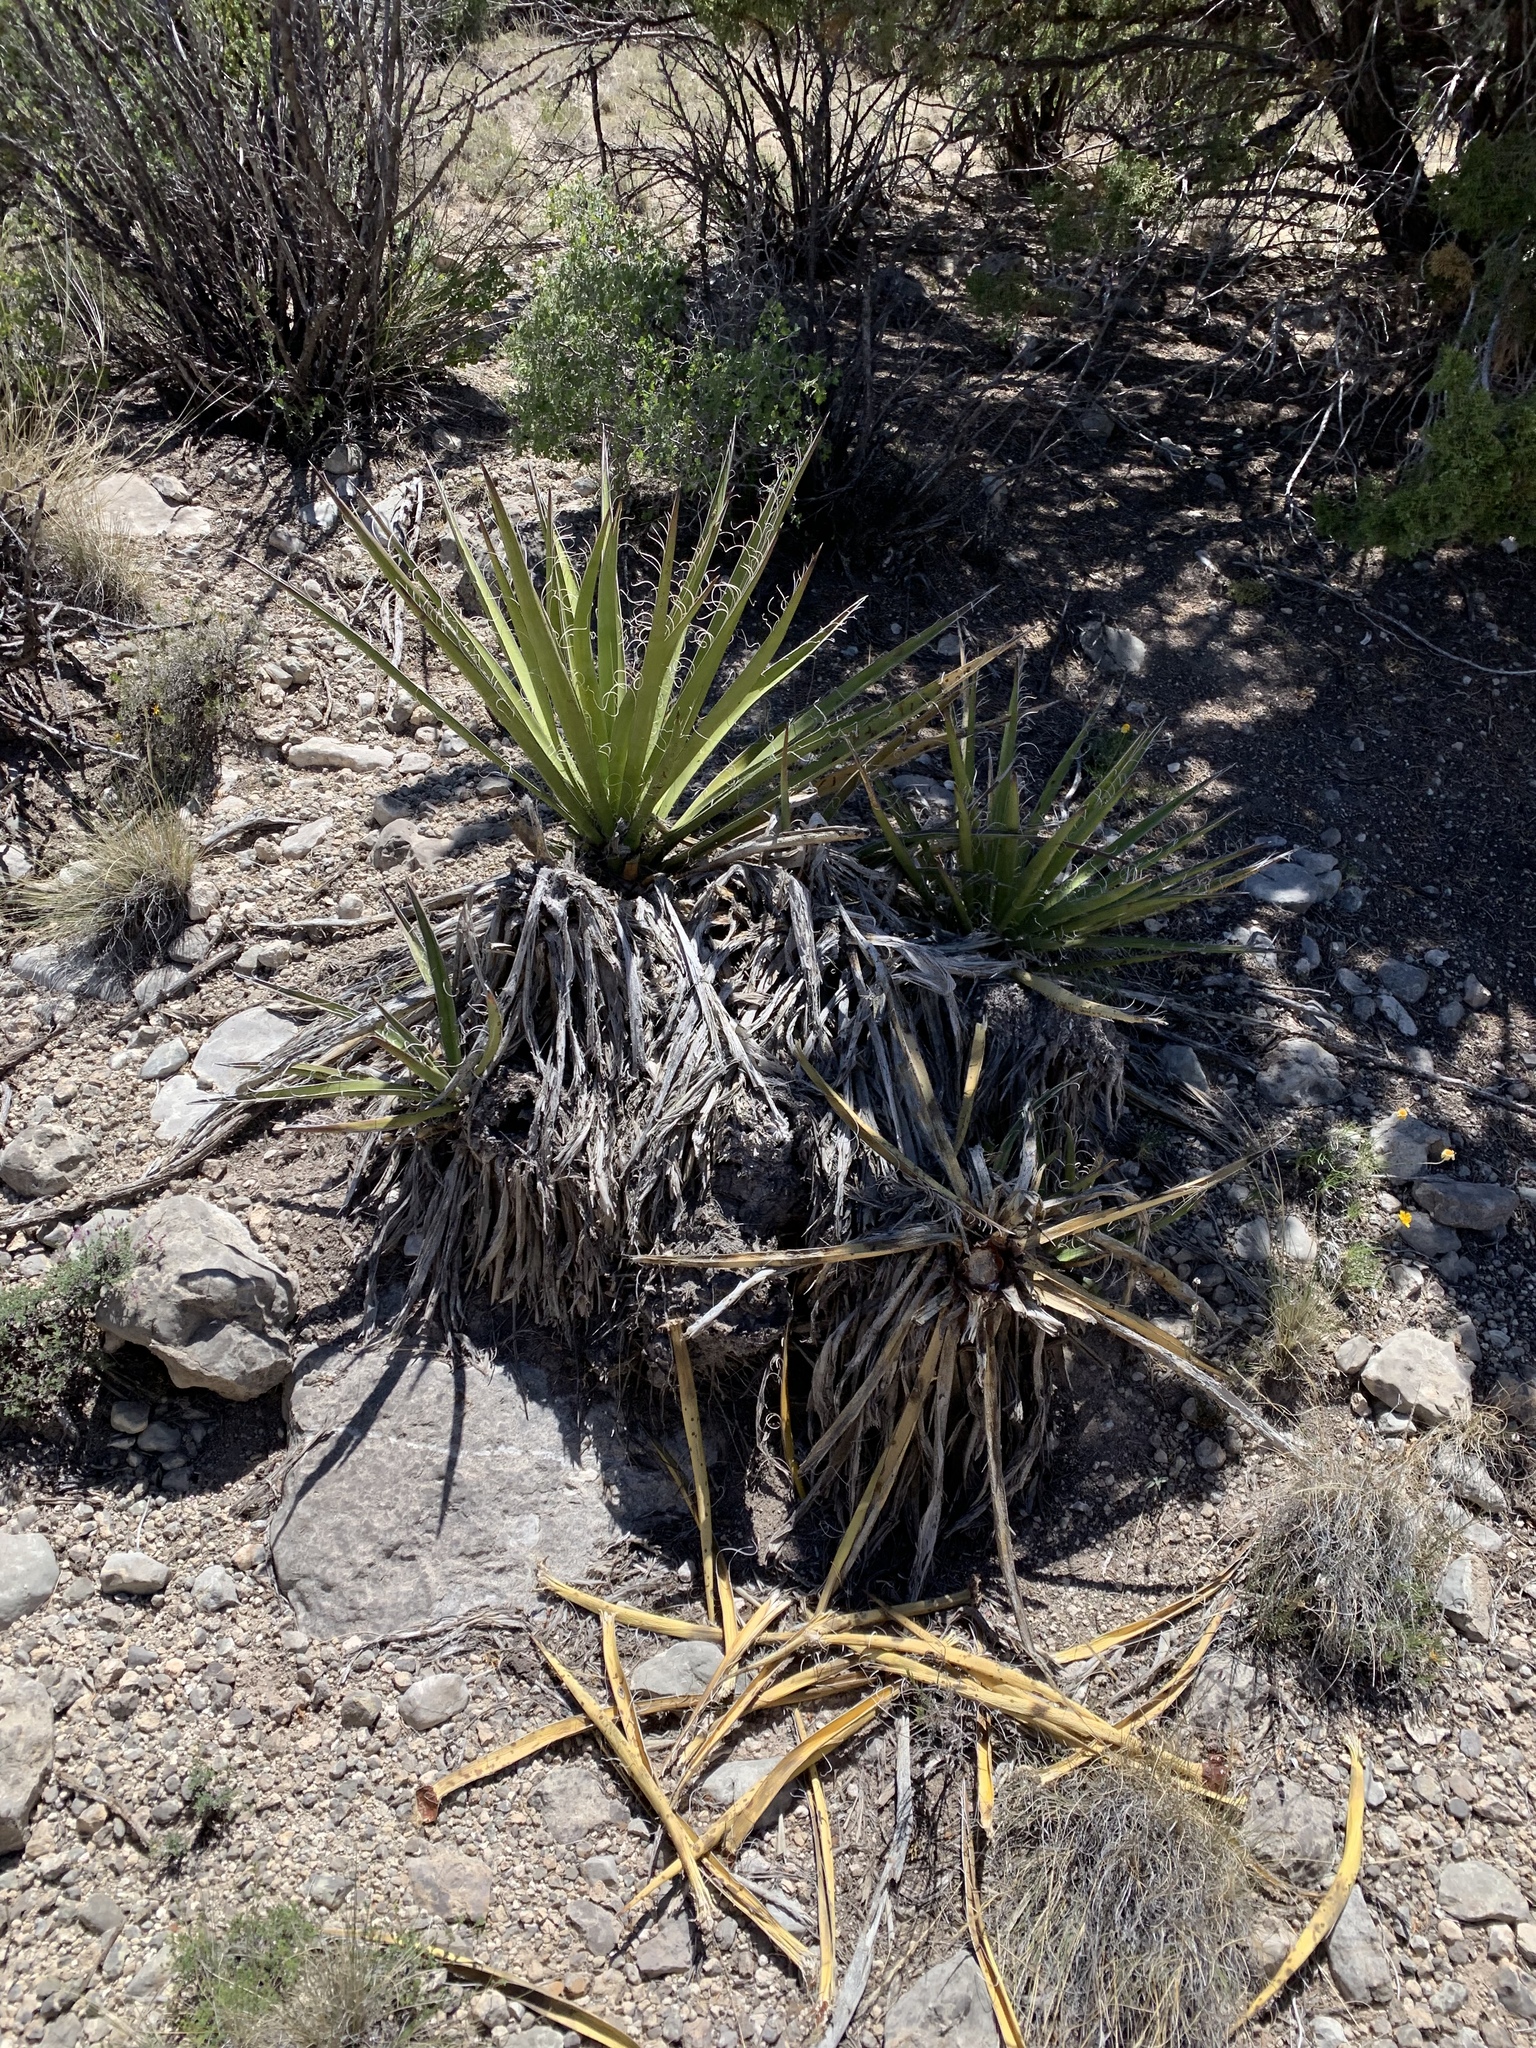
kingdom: Plantae
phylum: Tracheophyta
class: Liliopsida
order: Asparagales
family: Asparagaceae
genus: Yucca
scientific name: Yucca baccata
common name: Banana yucca
